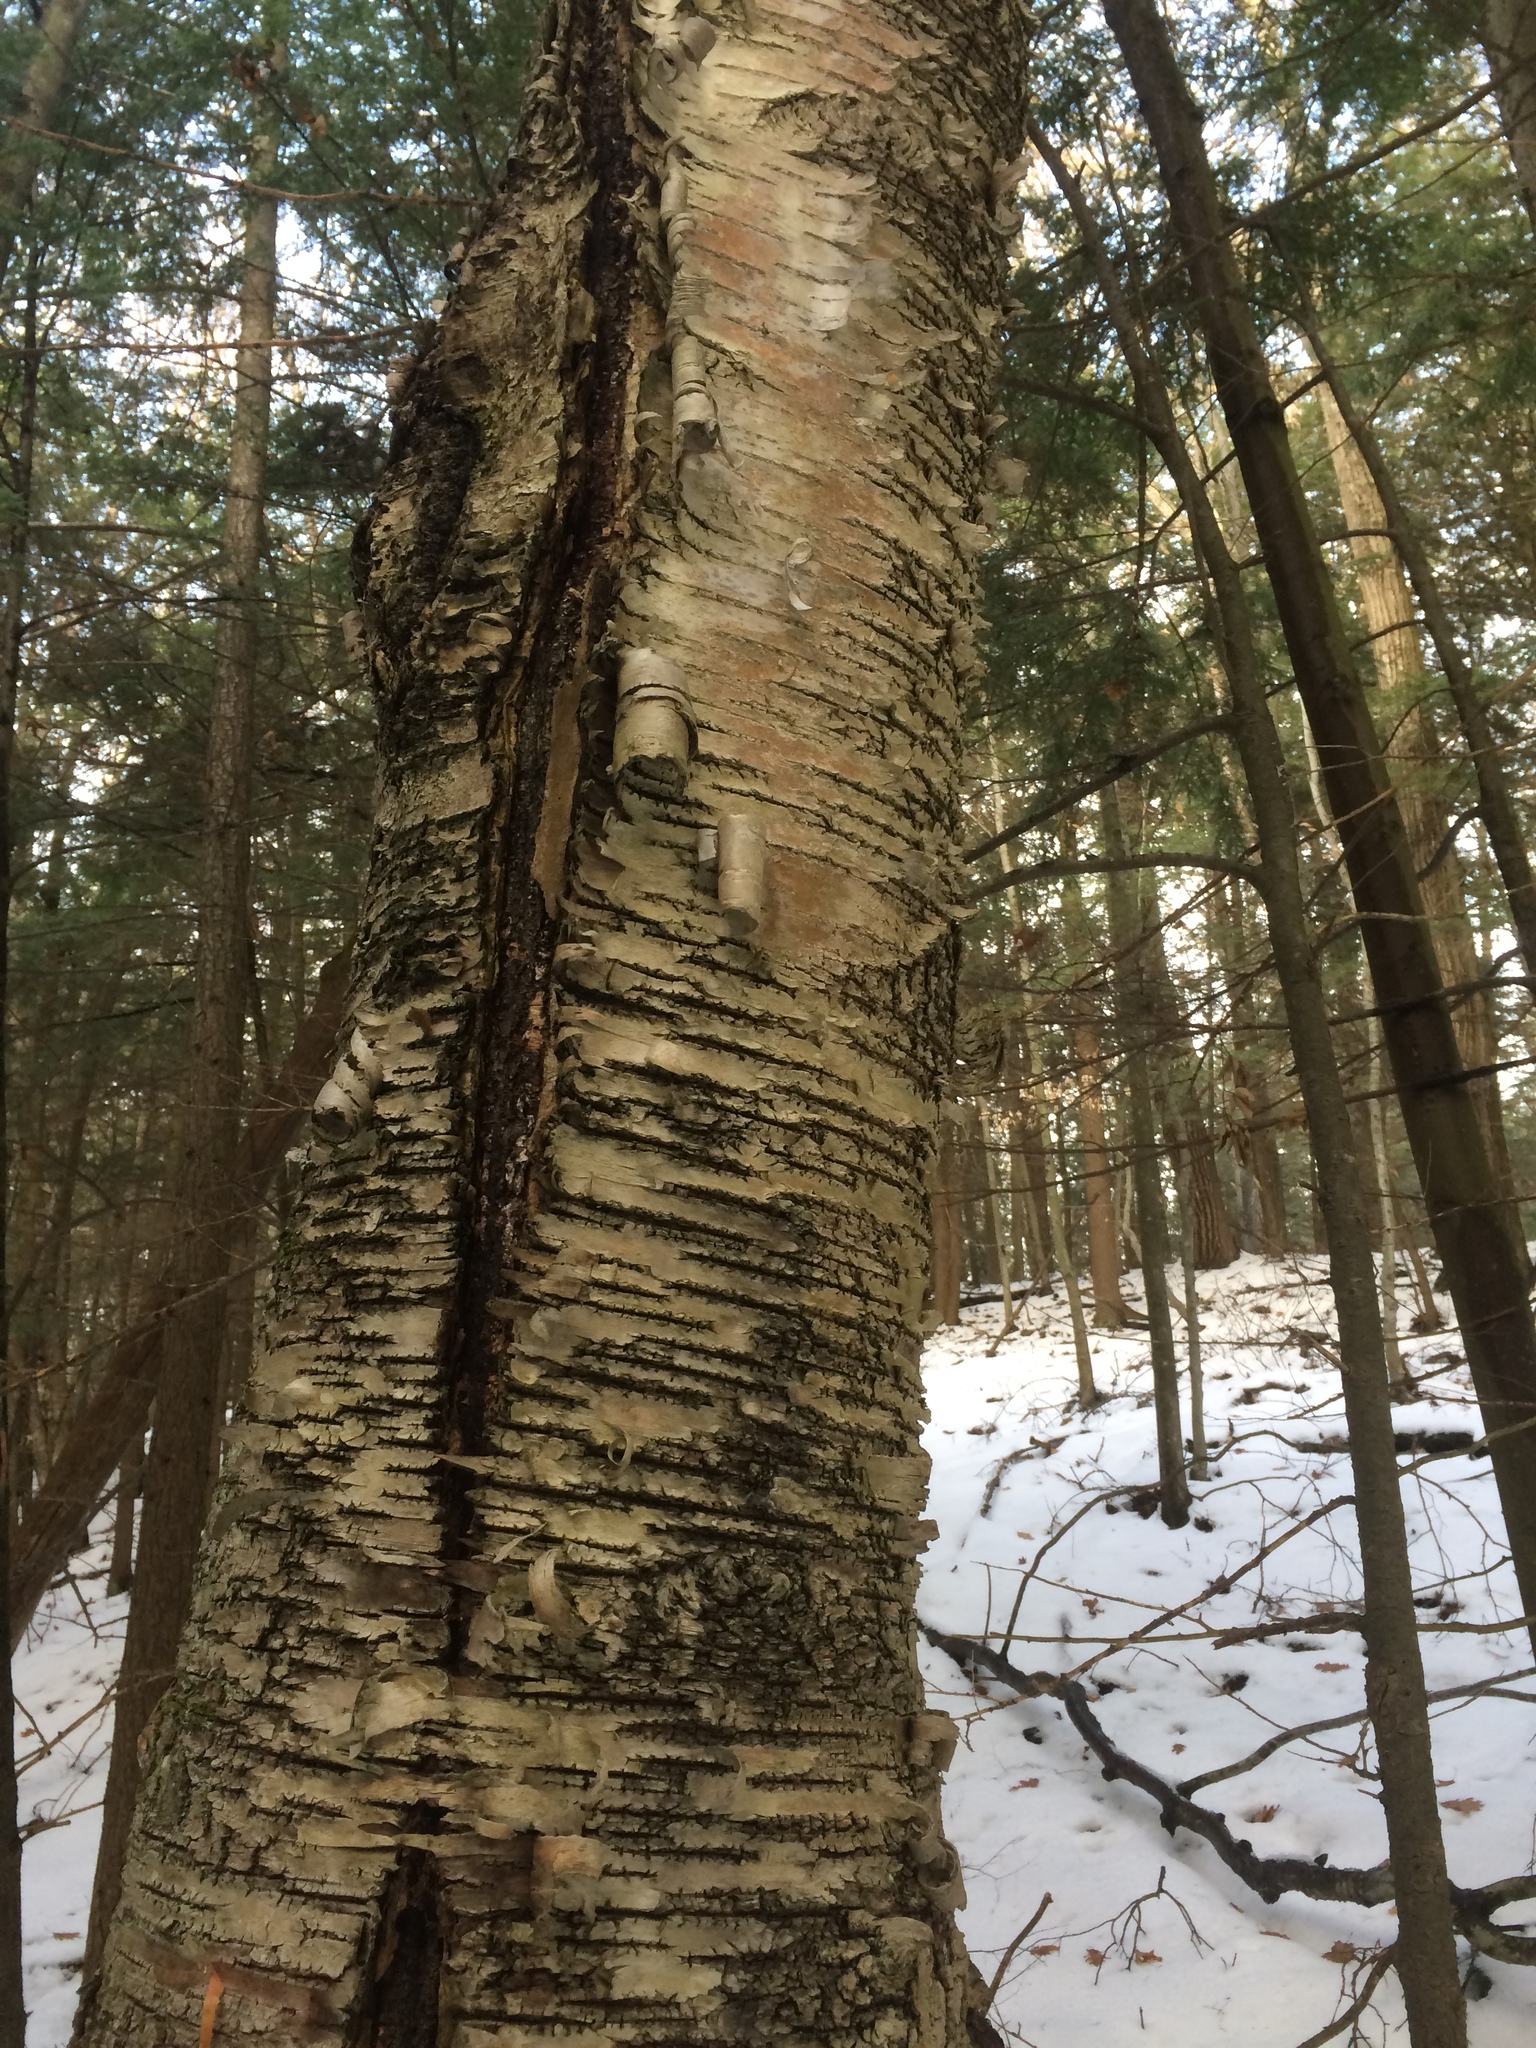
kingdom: Plantae
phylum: Tracheophyta
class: Magnoliopsida
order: Fagales
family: Betulaceae
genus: Betula
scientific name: Betula alleghaniensis
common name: Yellow birch
